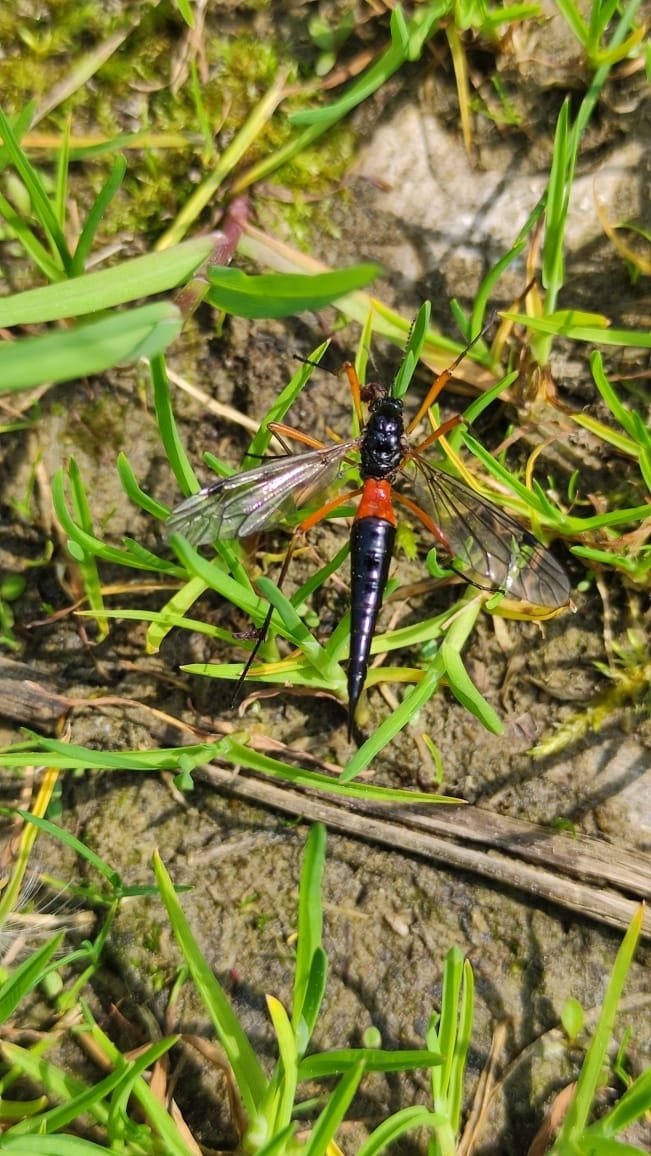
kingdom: Animalia
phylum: Arthropoda
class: Insecta
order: Diptera
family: Tipulidae
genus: Tanyptera
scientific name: Tanyptera atrata
